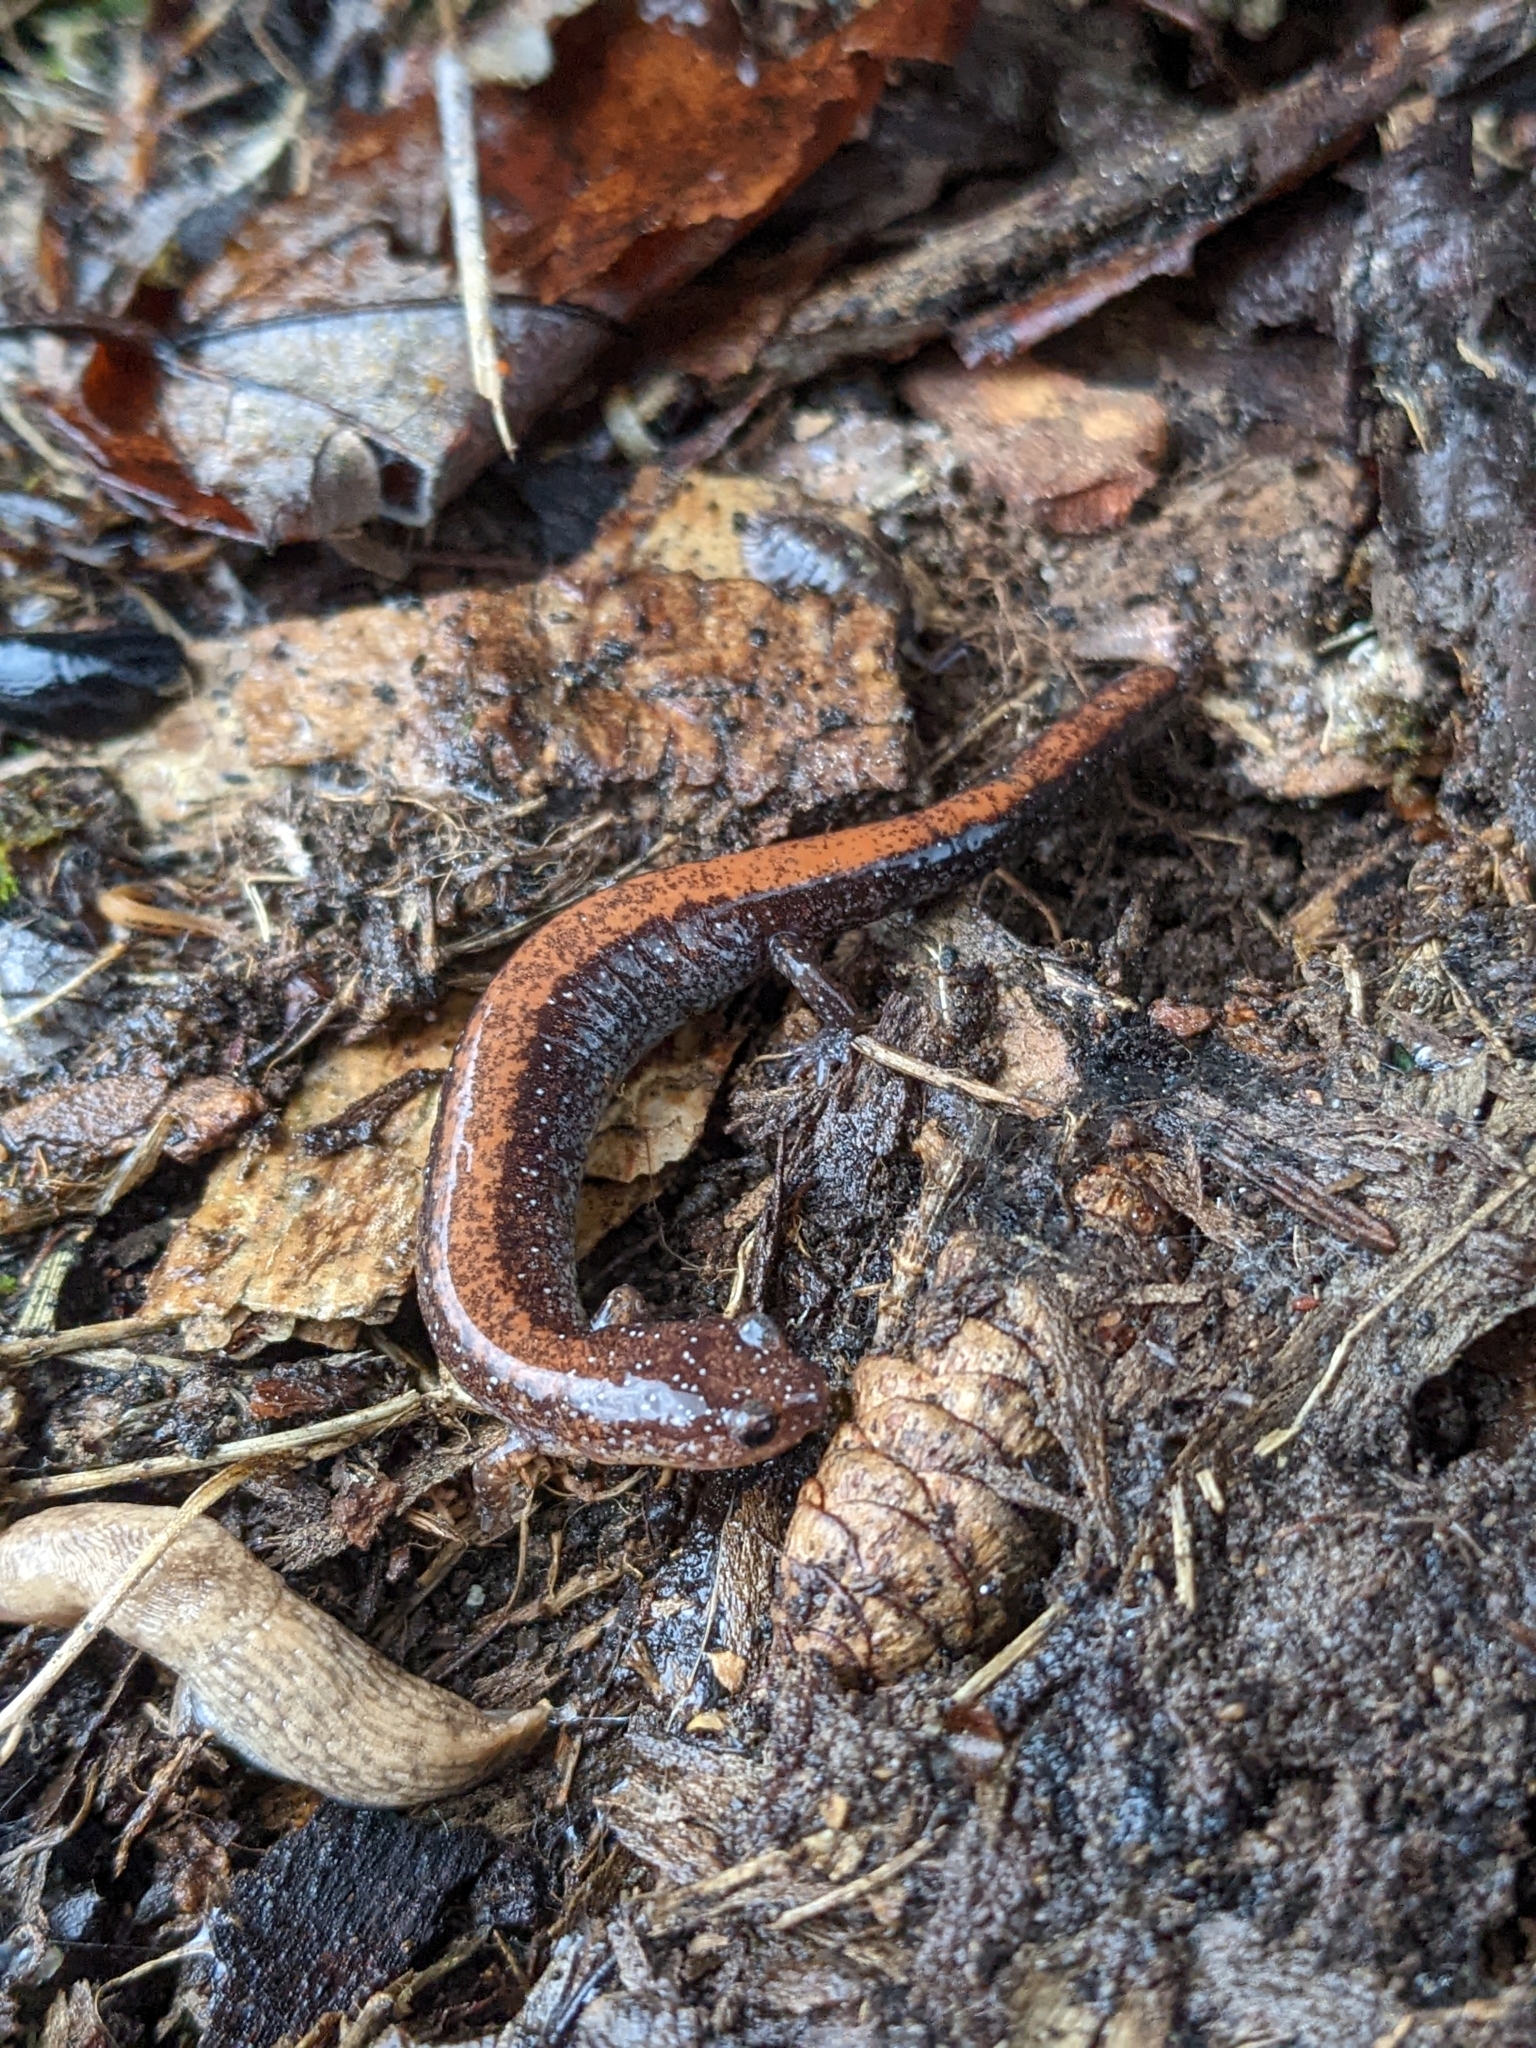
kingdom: Animalia
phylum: Chordata
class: Amphibia
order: Caudata
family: Plethodontidae
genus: Plethodon
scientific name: Plethodon cinereus
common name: Redback salamander
